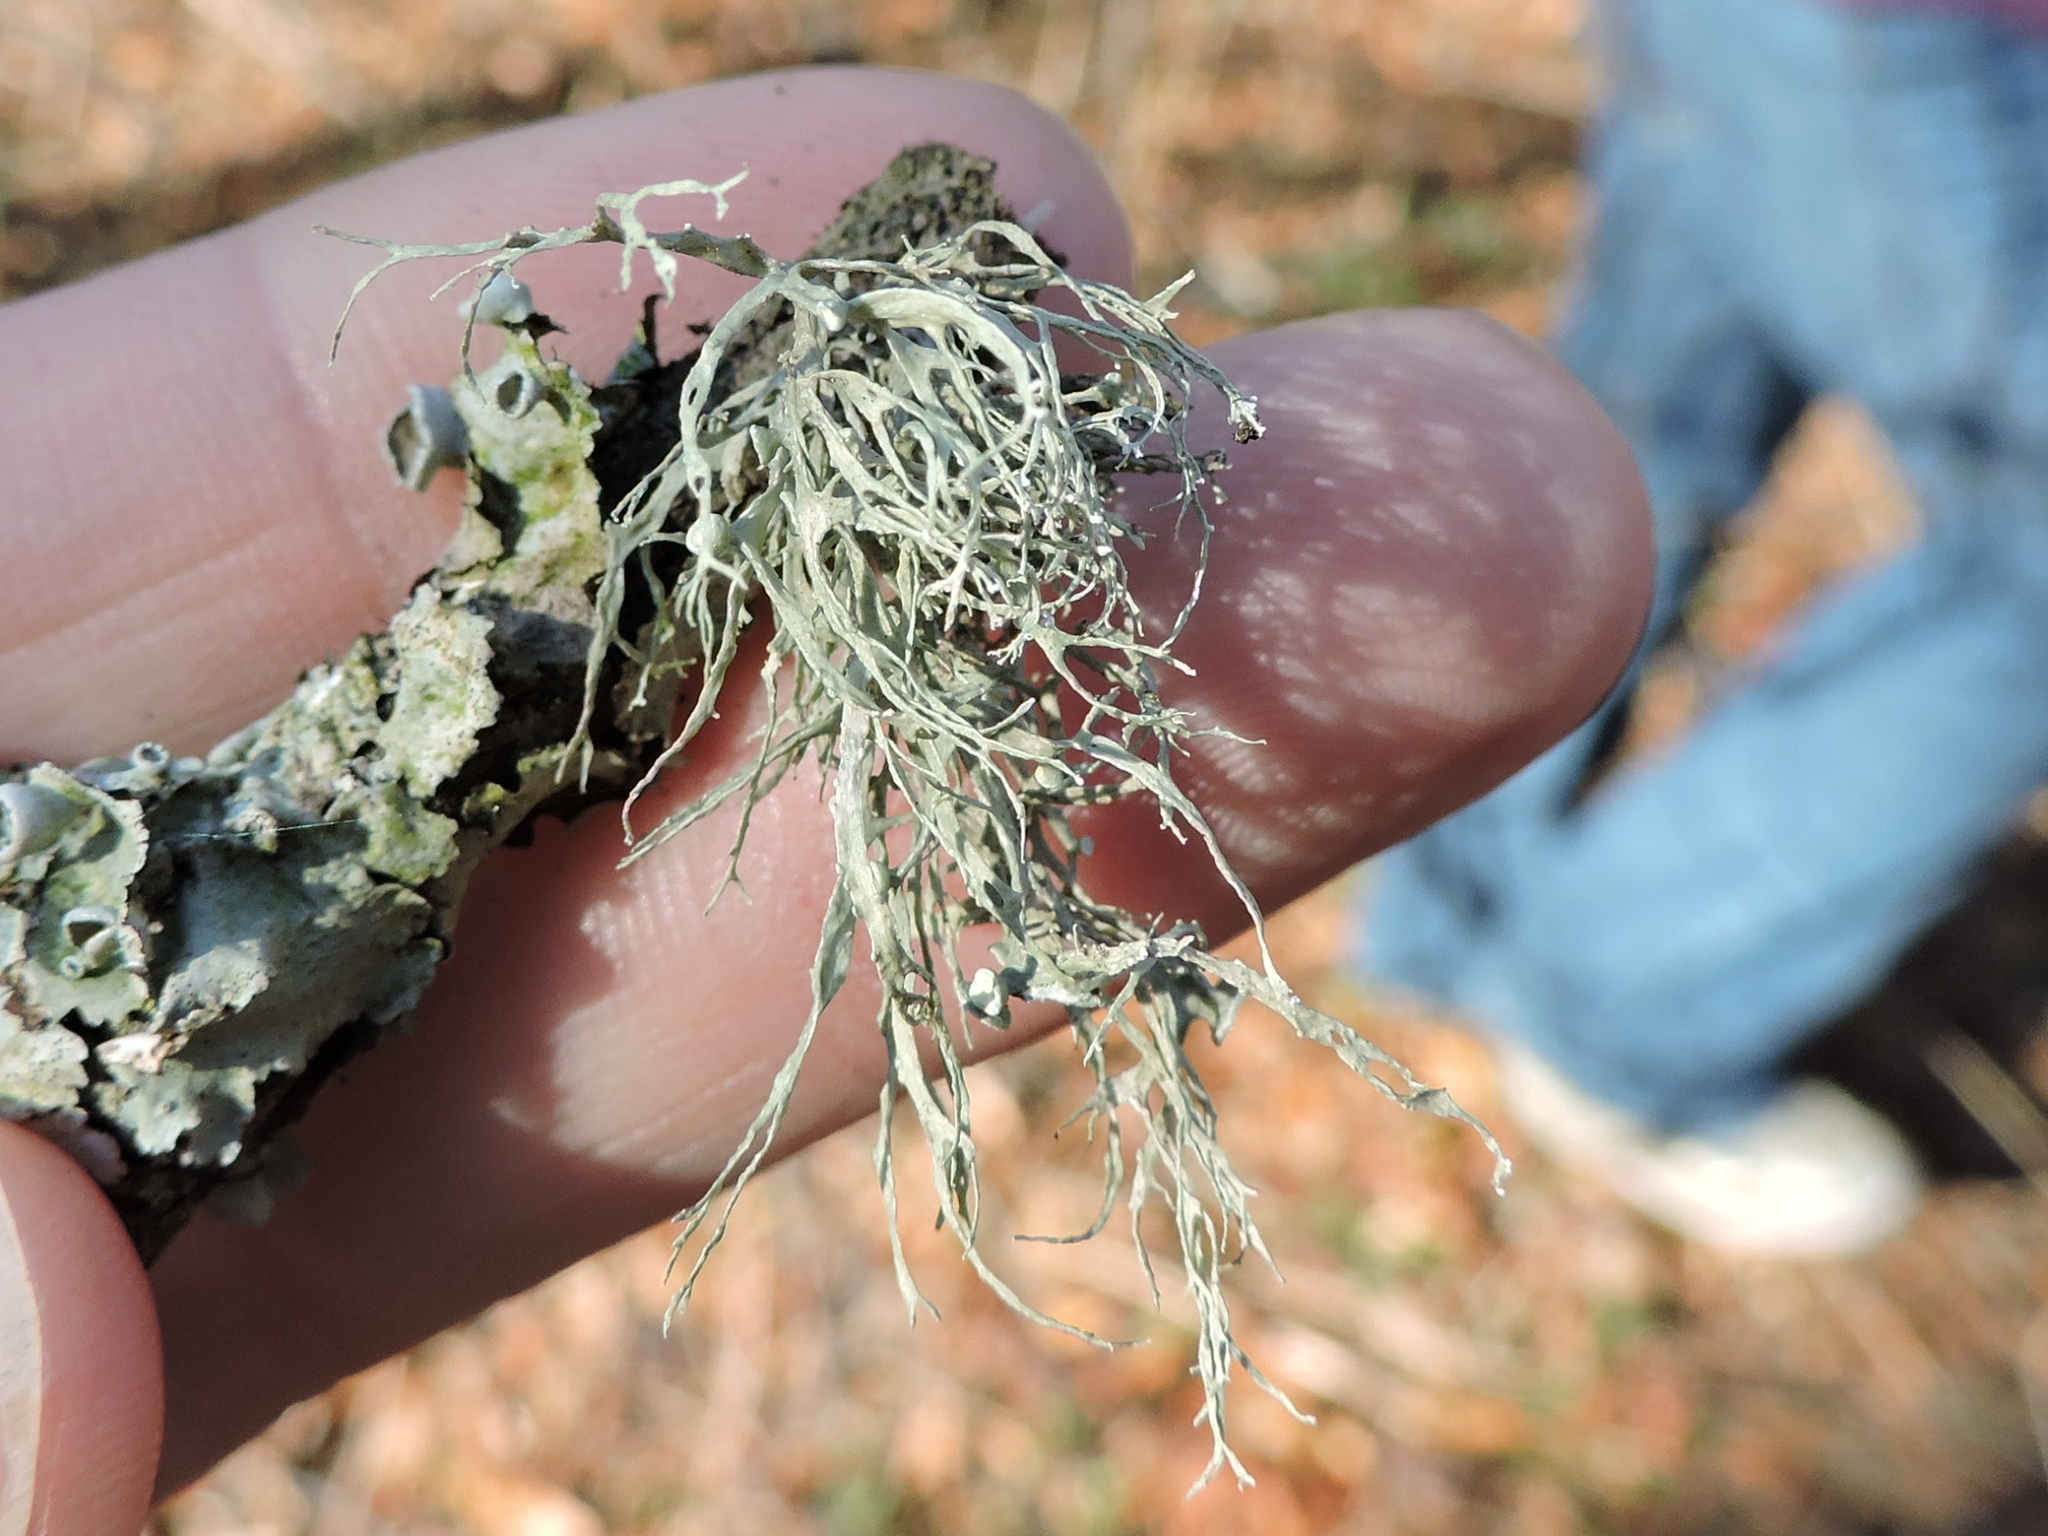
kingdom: Fungi
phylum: Ascomycota
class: Lecanoromycetes
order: Lecanorales
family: Ramalinaceae
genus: Ramalina
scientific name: Ramalina americana
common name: Sinewed bush lichen
